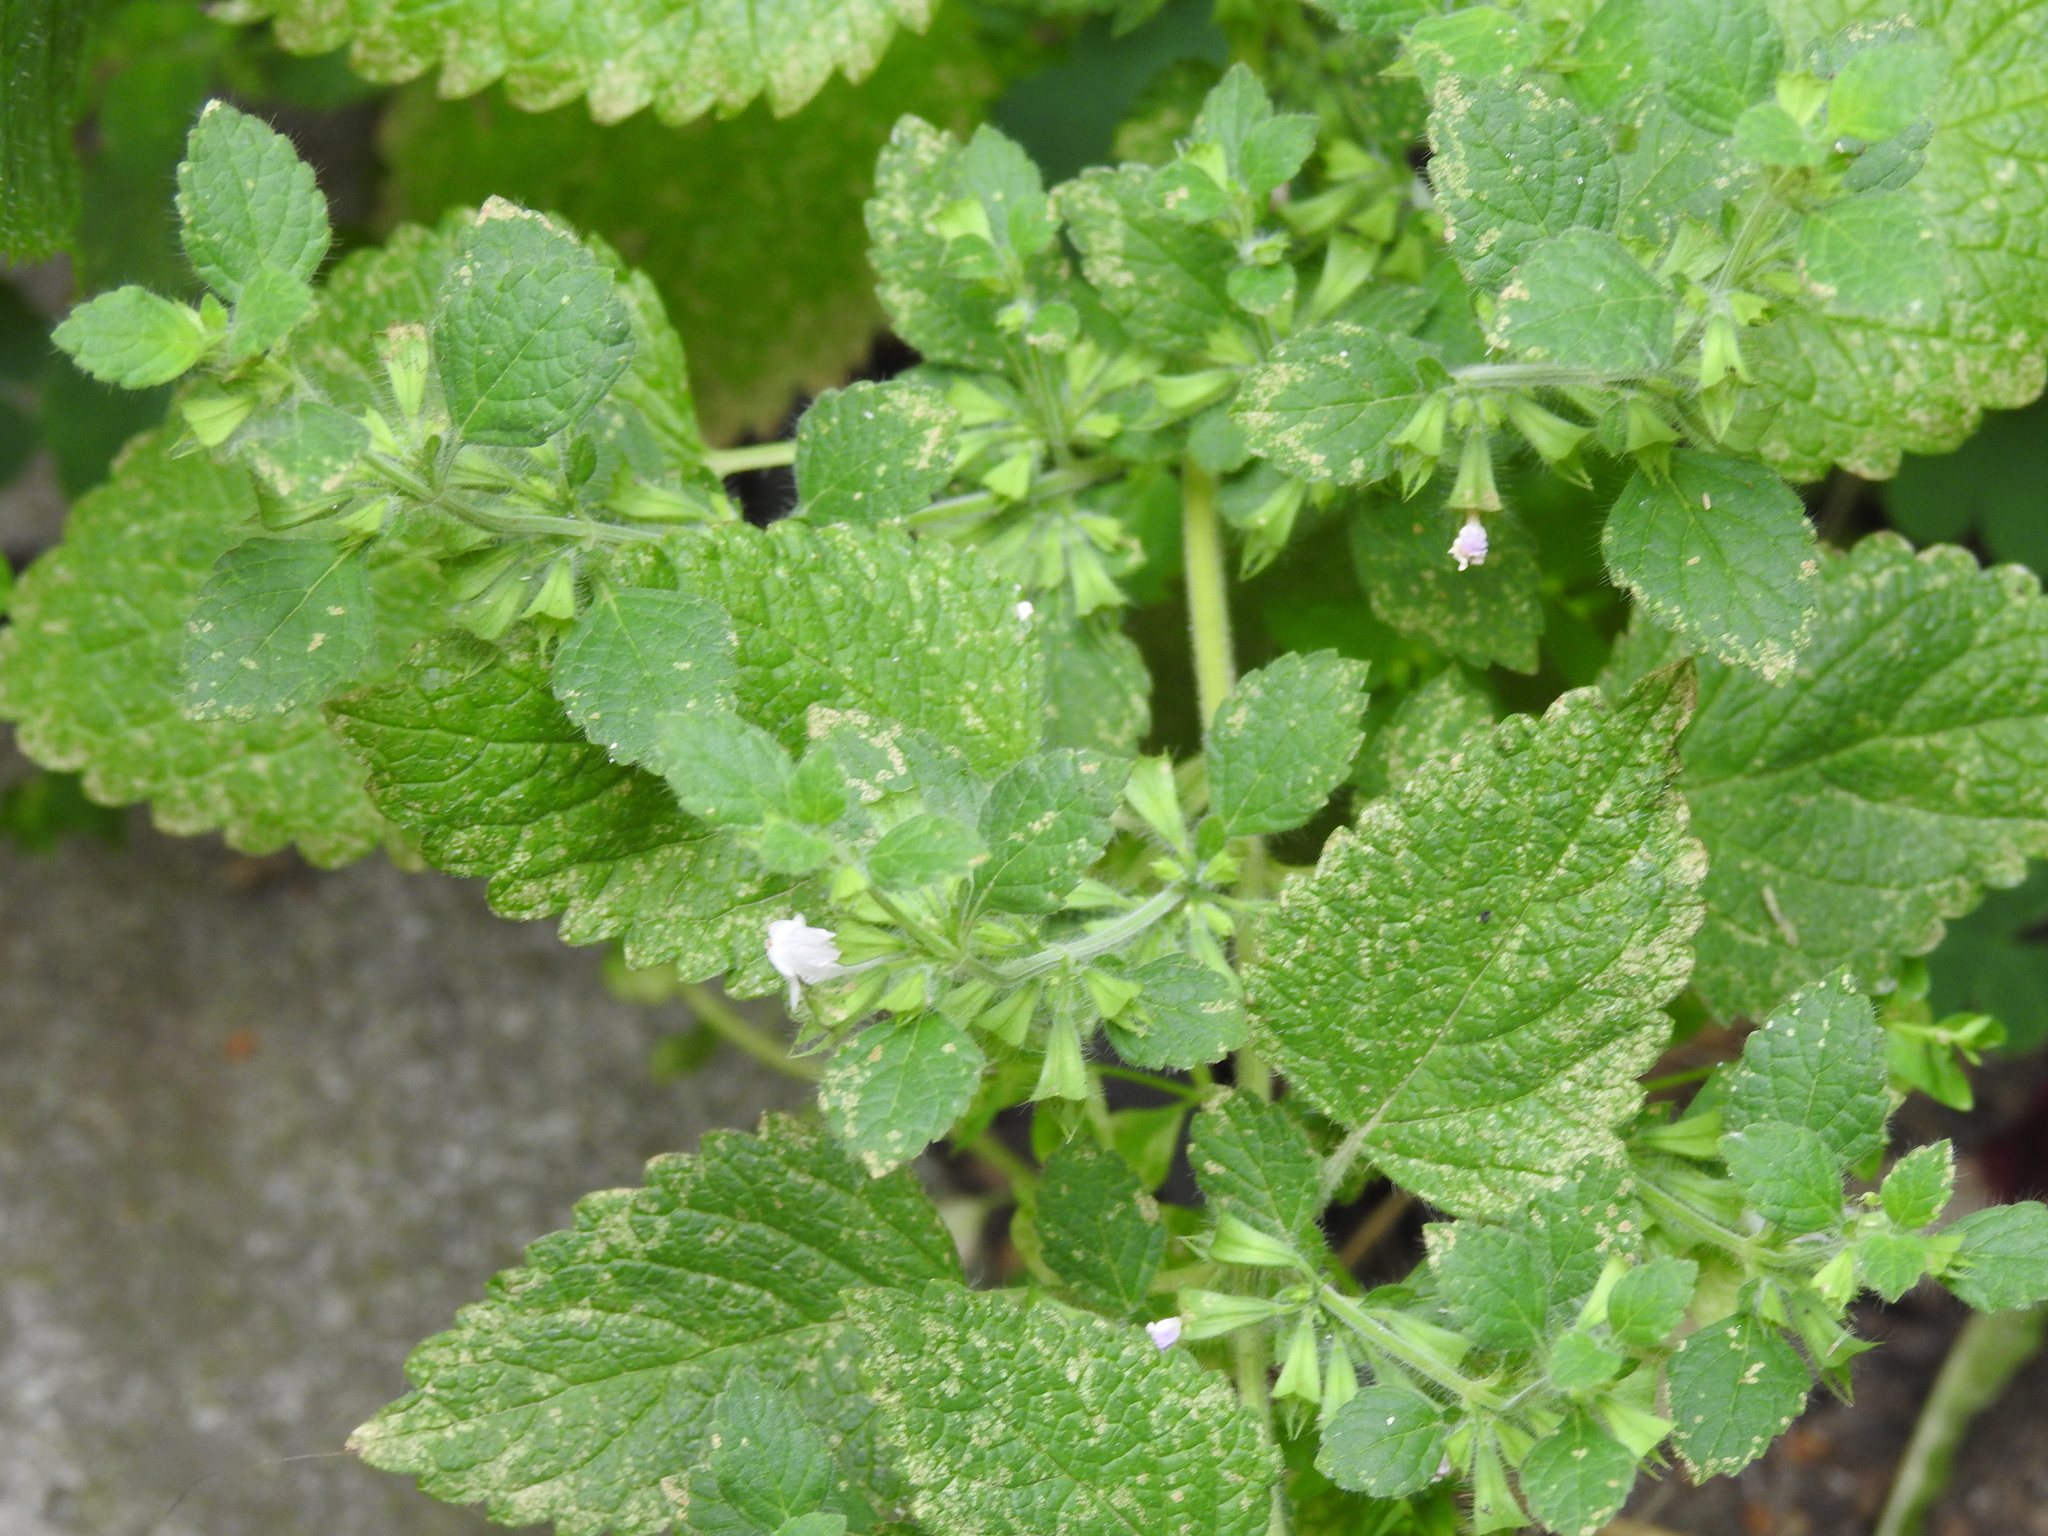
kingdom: Plantae
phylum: Tracheophyta
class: Magnoliopsida
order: Lamiales
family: Lamiaceae
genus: Melissa
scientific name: Melissa officinalis
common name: Balm
